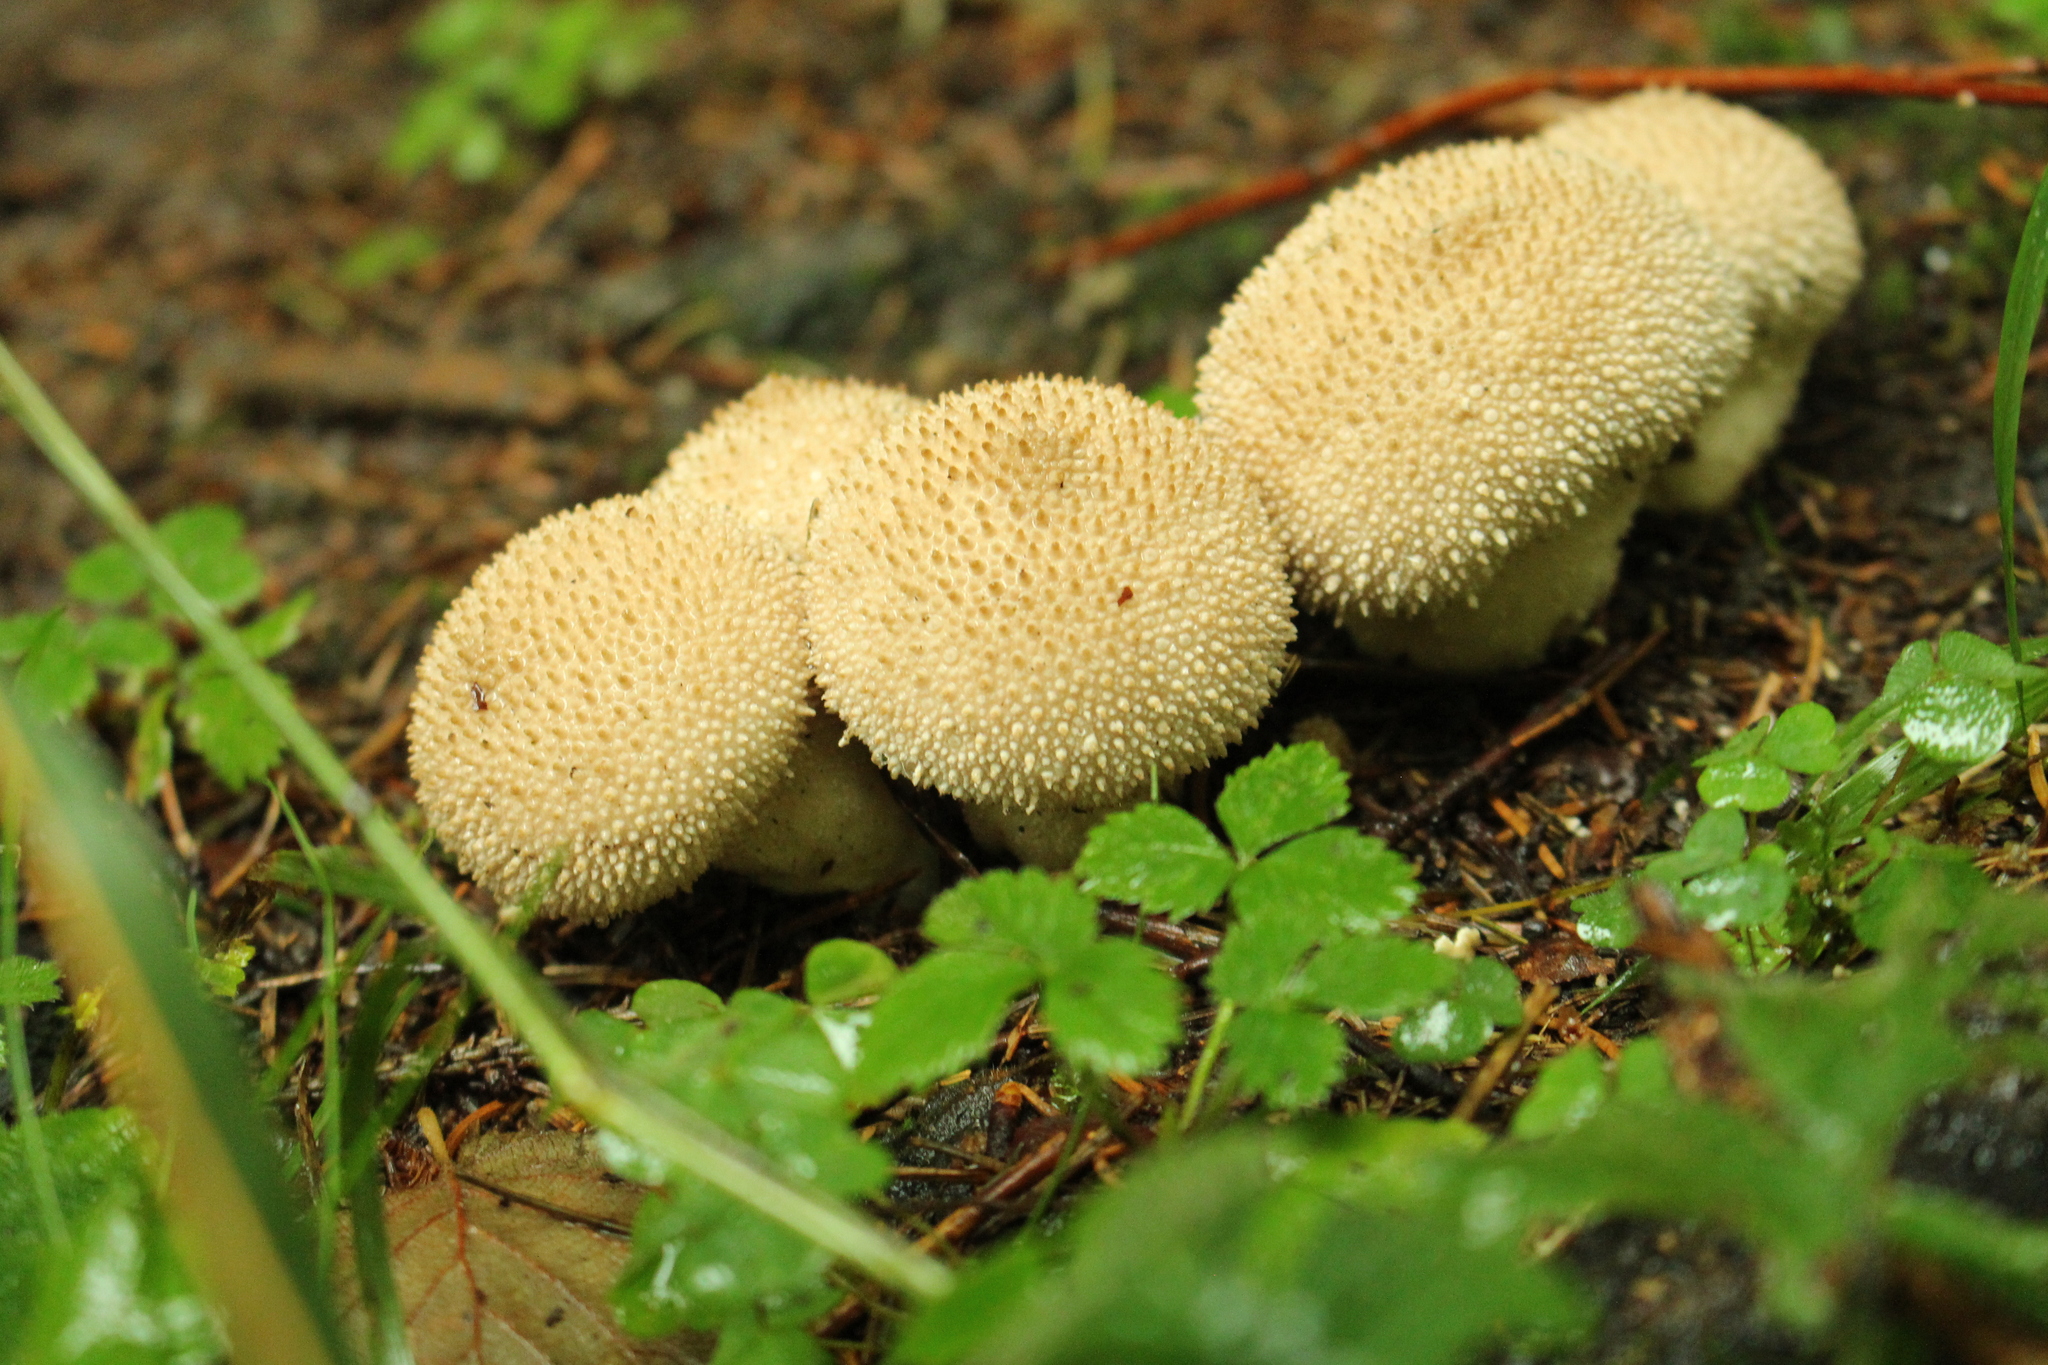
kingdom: Fungi
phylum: Basidiomycota
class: Agaricomycetes
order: Agaricales
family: Lycoperdaceae
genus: Lycoperdon
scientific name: Lycoperdon perlatum
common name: Common puffball
